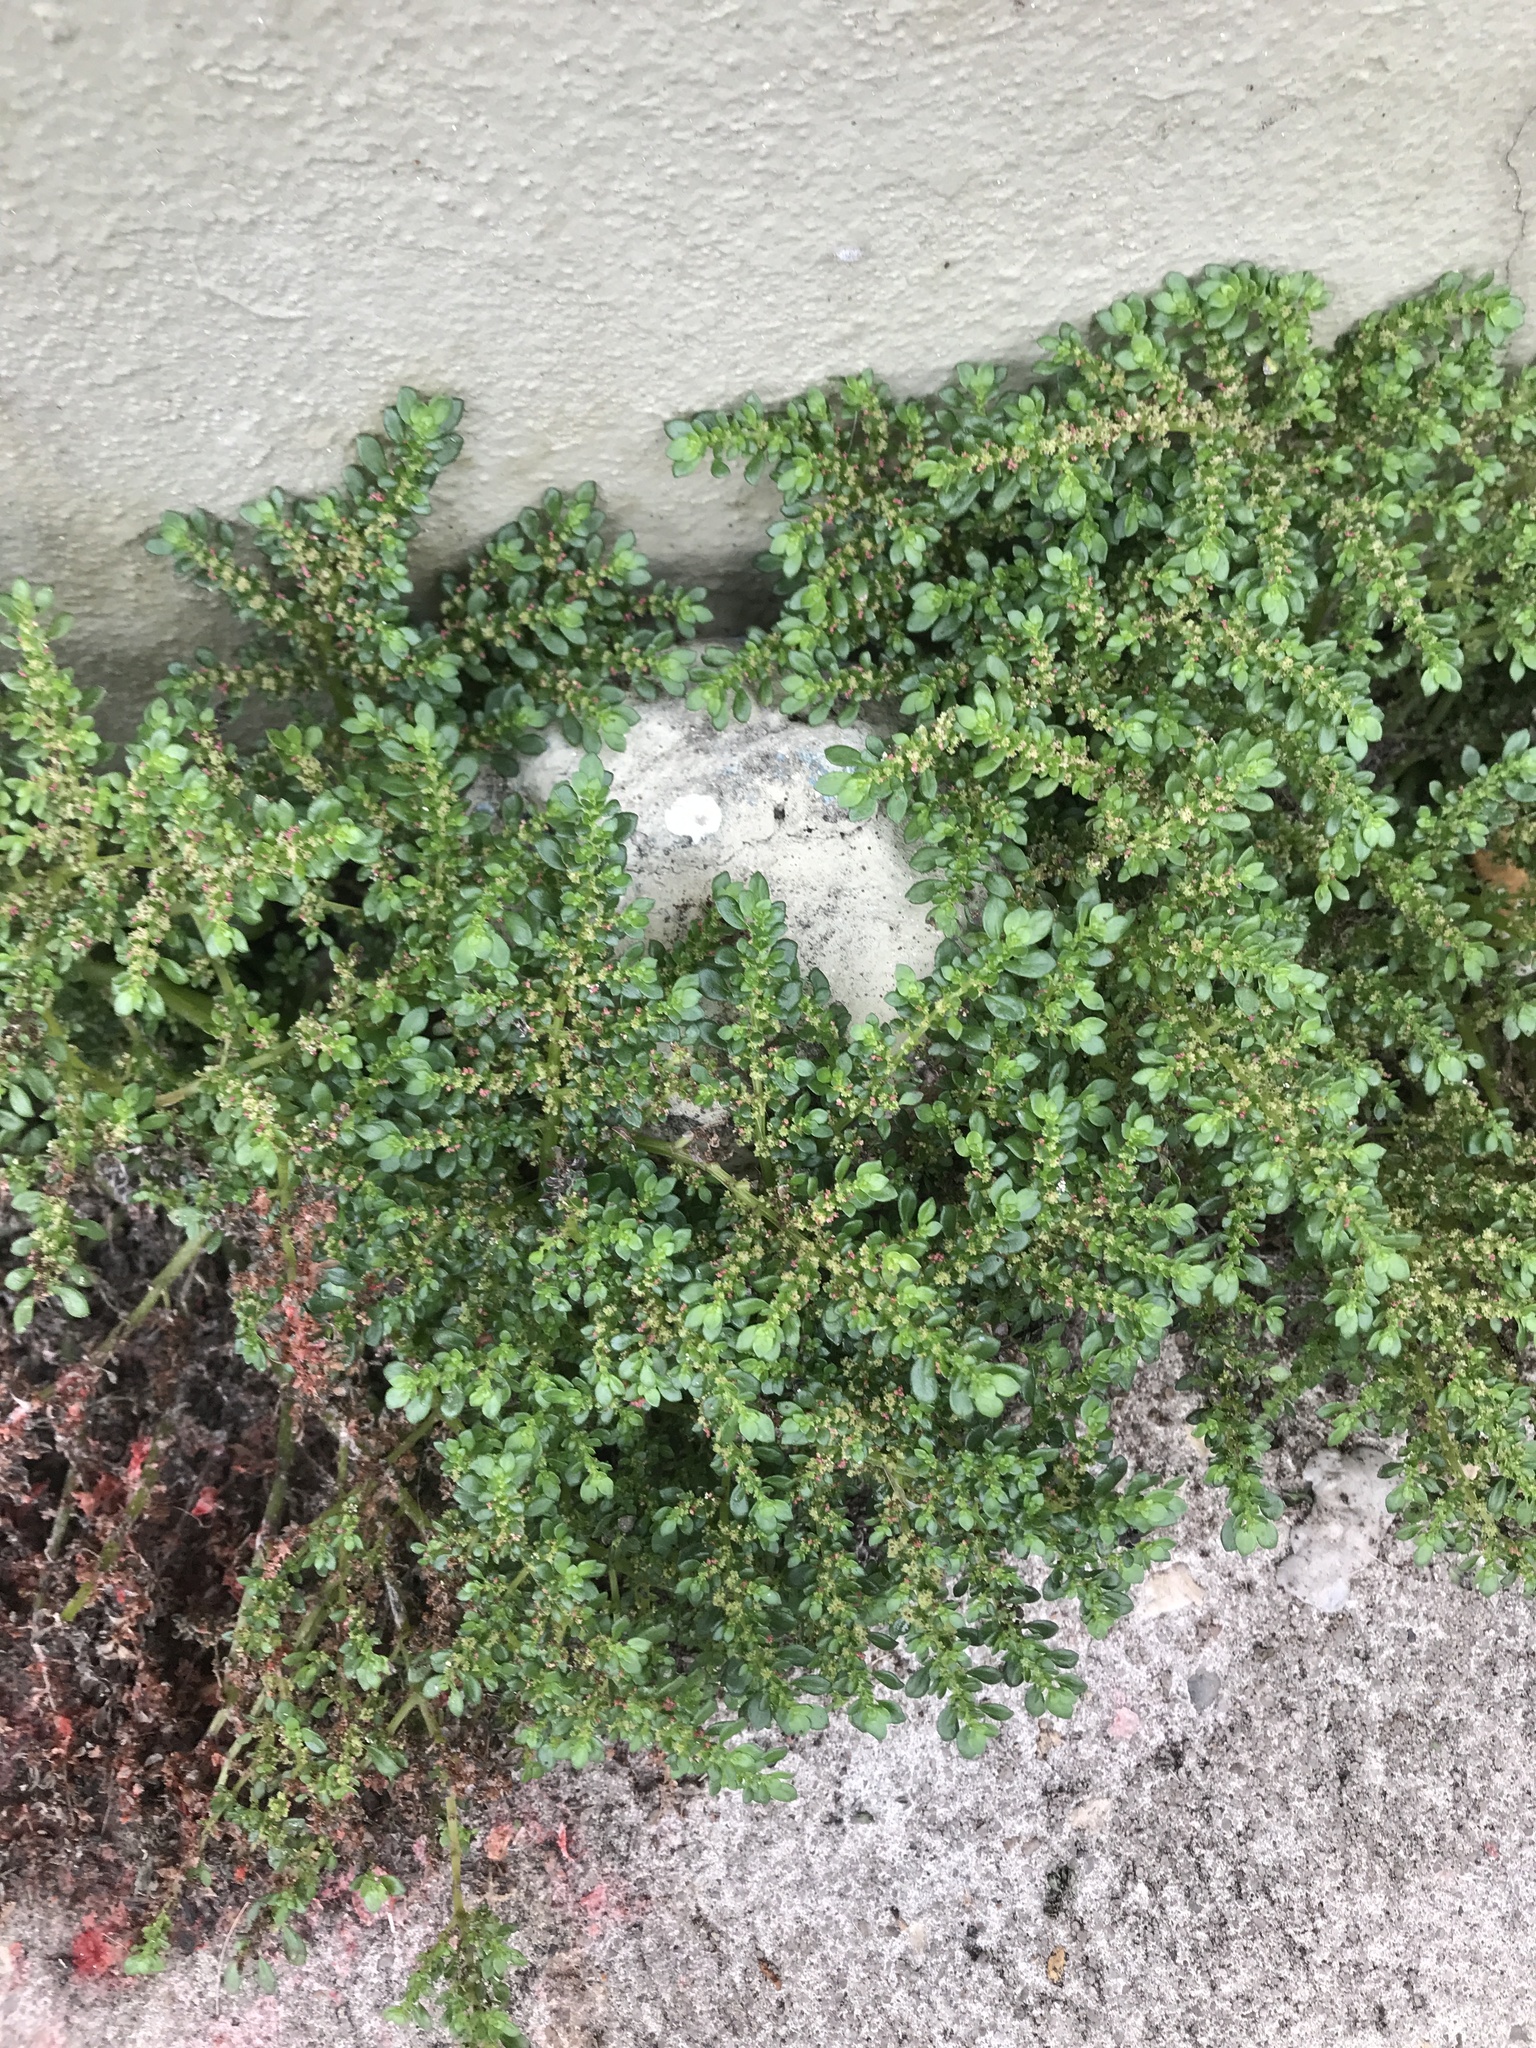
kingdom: Plantae
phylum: Tracheophyta
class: Magnoliopsida
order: Rosales
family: Urticaceae
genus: Pilea
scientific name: Pilea microphylla
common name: Artillery-plant
